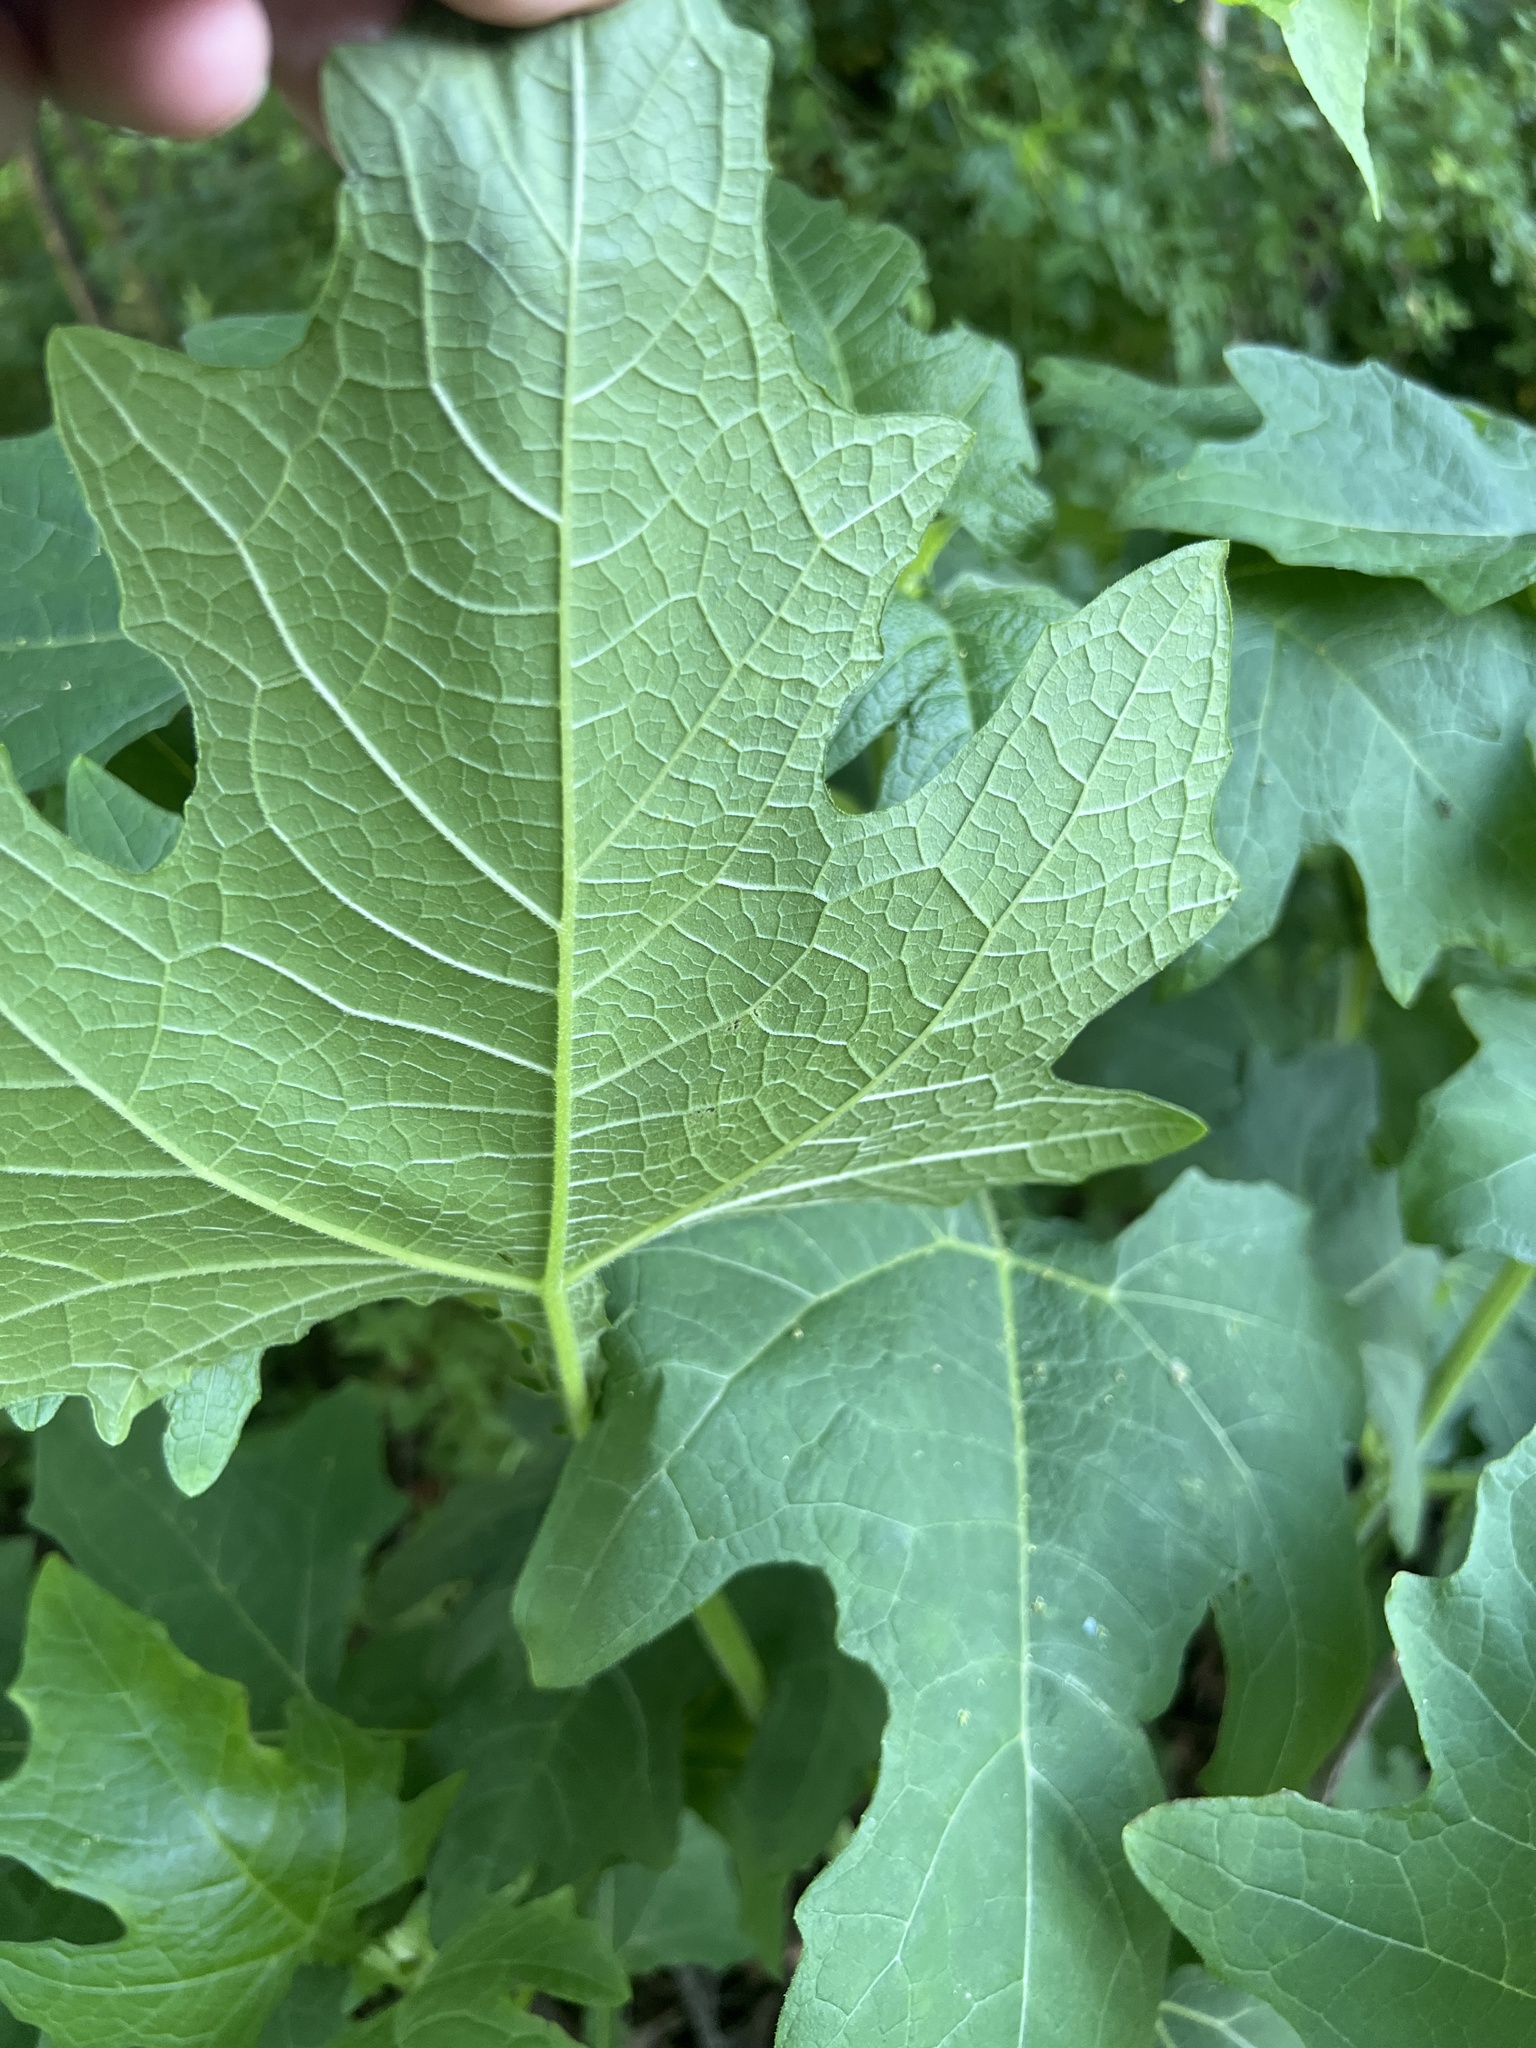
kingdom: Plantae
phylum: Tracheophyta
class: Magnoliopsida
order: Asterales
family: Asteraceae
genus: Smallanthus
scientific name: Smallanthus uvedalia
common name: Bear's-foot
